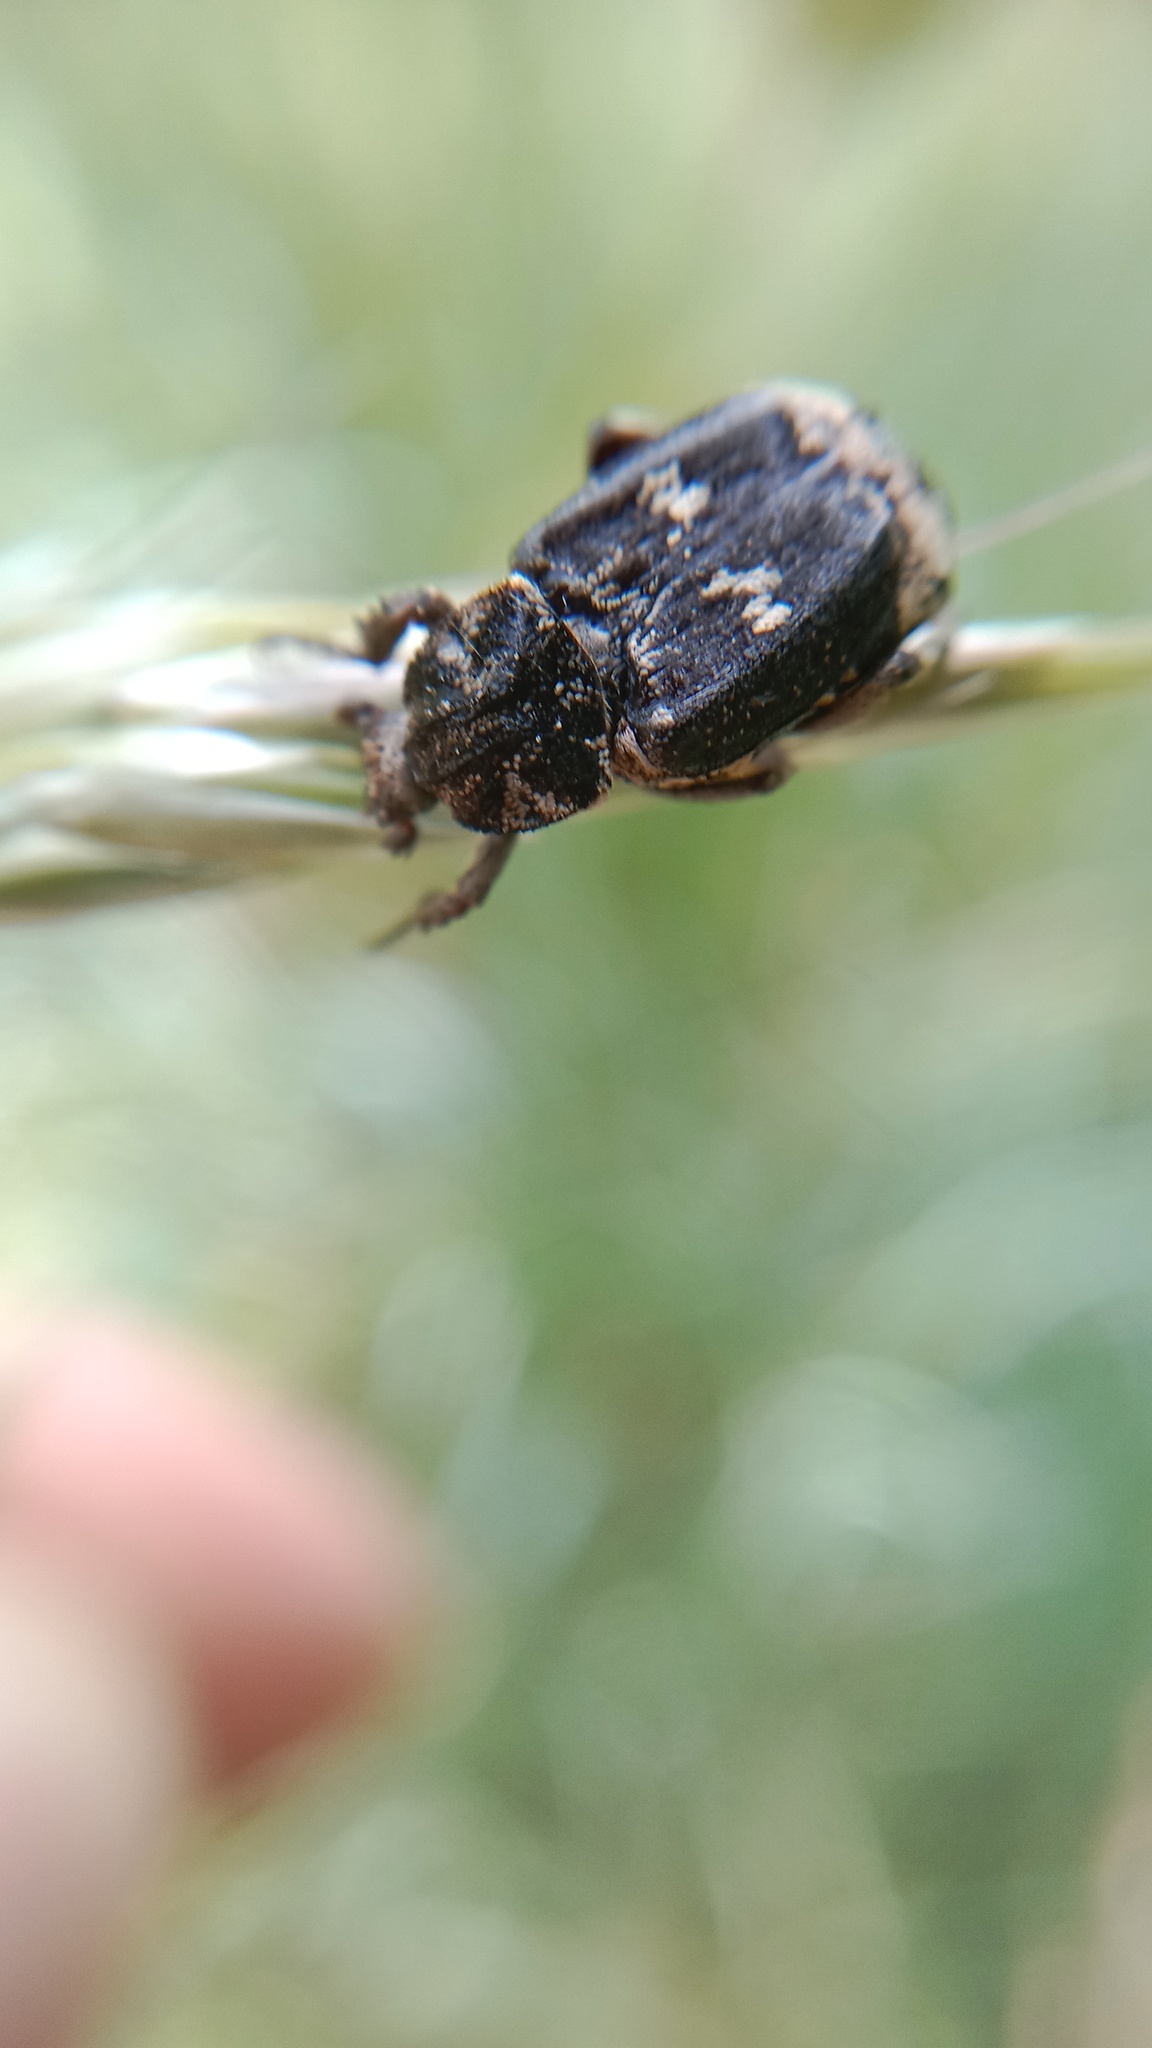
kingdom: Animalia
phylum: Arthropoda
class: Insecta
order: Coleoptera
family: Scarabaeidae
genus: Valgus
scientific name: Valgus hemipterus
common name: Bug flower chafer
